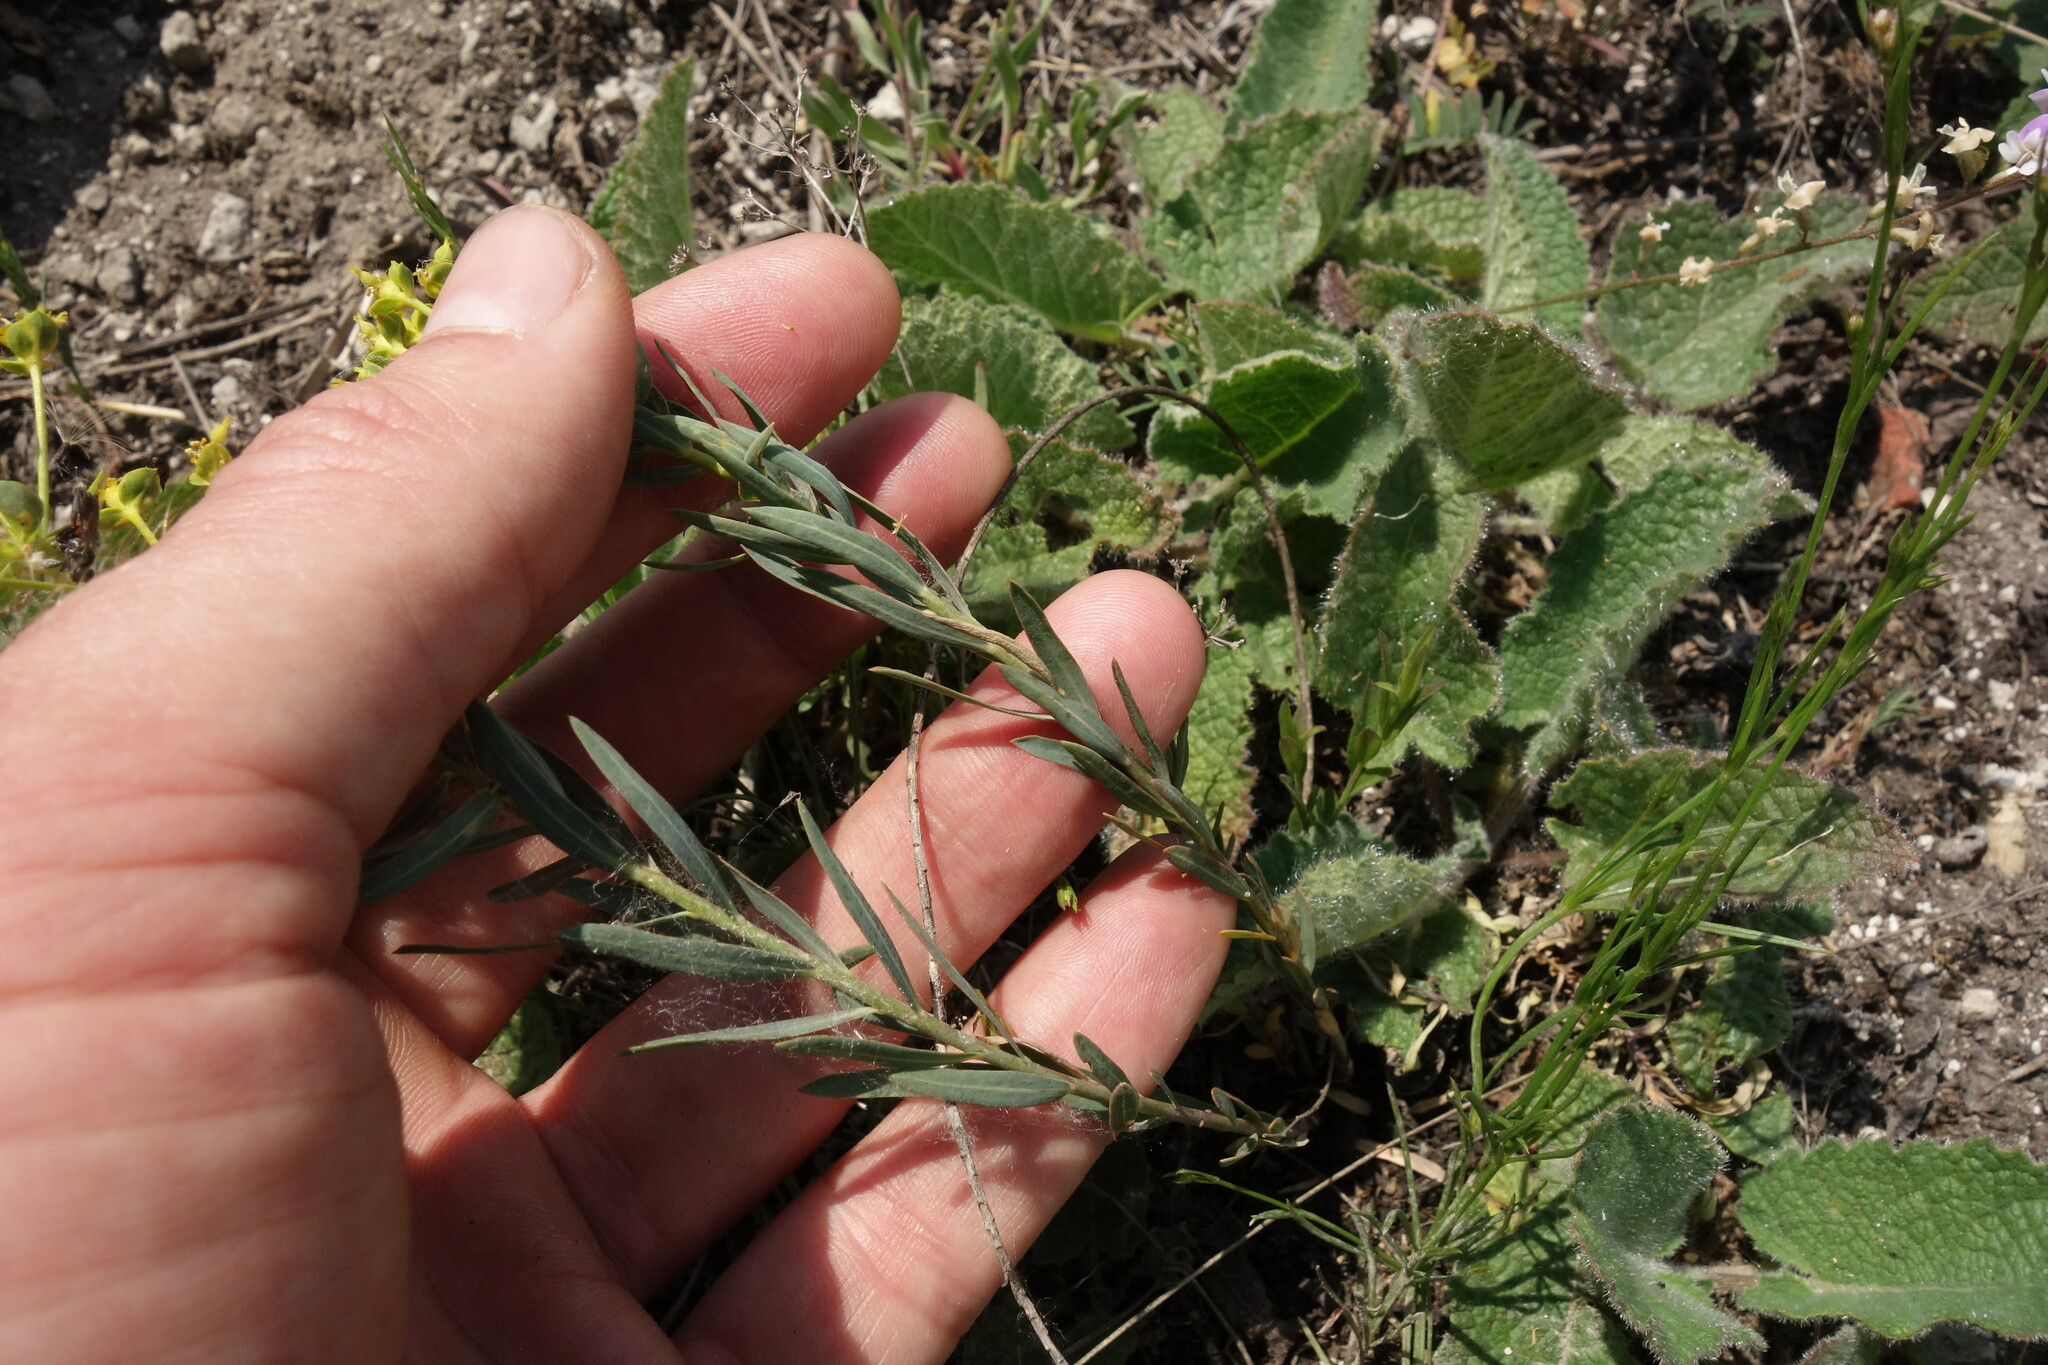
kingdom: Plantae
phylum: Tracheophyta
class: Magnoliopsida
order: Malpighiales
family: Euphorbiaceae
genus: Euphorbia
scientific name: Euphorbia seguieriana
